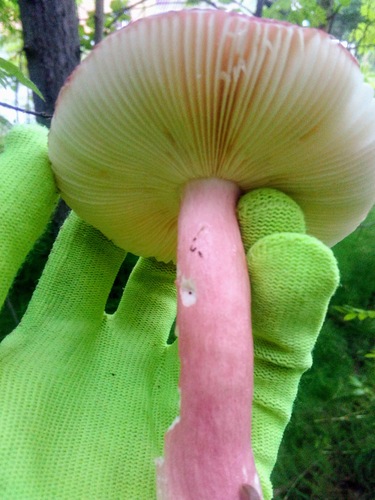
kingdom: Fungi
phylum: Basidiomycota
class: Agaricomycetes
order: Russulales
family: Russulaceae
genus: Russula
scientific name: Russula sanguinaria
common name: Bloody brittlegill
